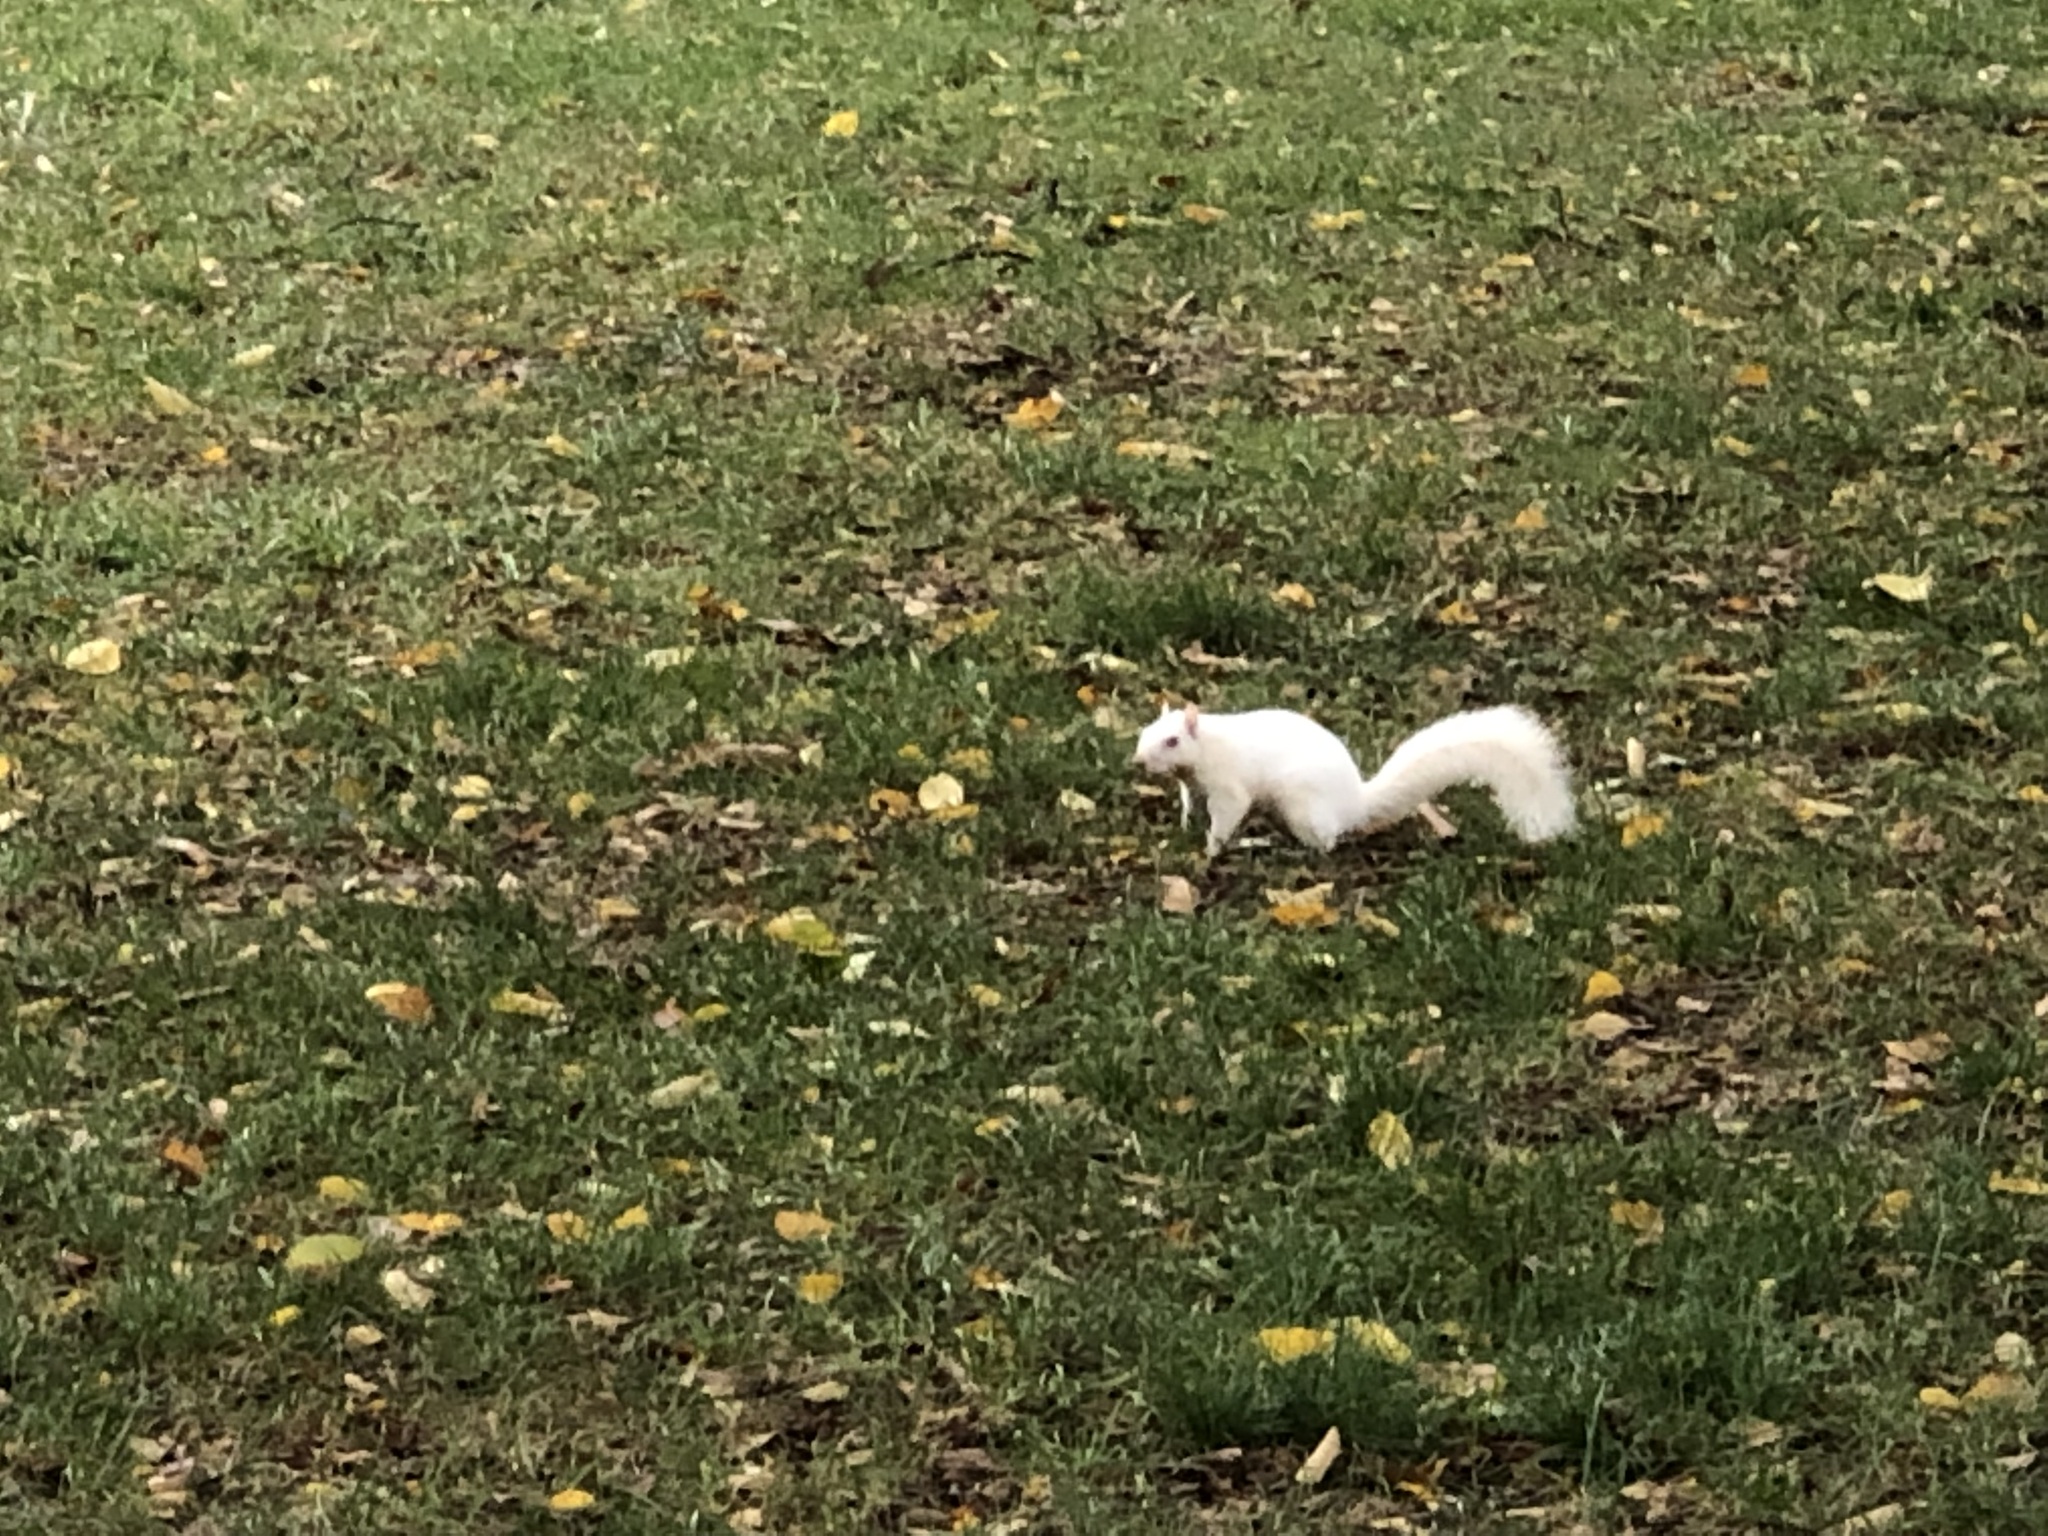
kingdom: Animalia
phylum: Chordata
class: Mammalia
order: Rodentia
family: Sciuridae
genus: Sciurus
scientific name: Sciurus carolinensis
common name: Eastern gray squirrel
